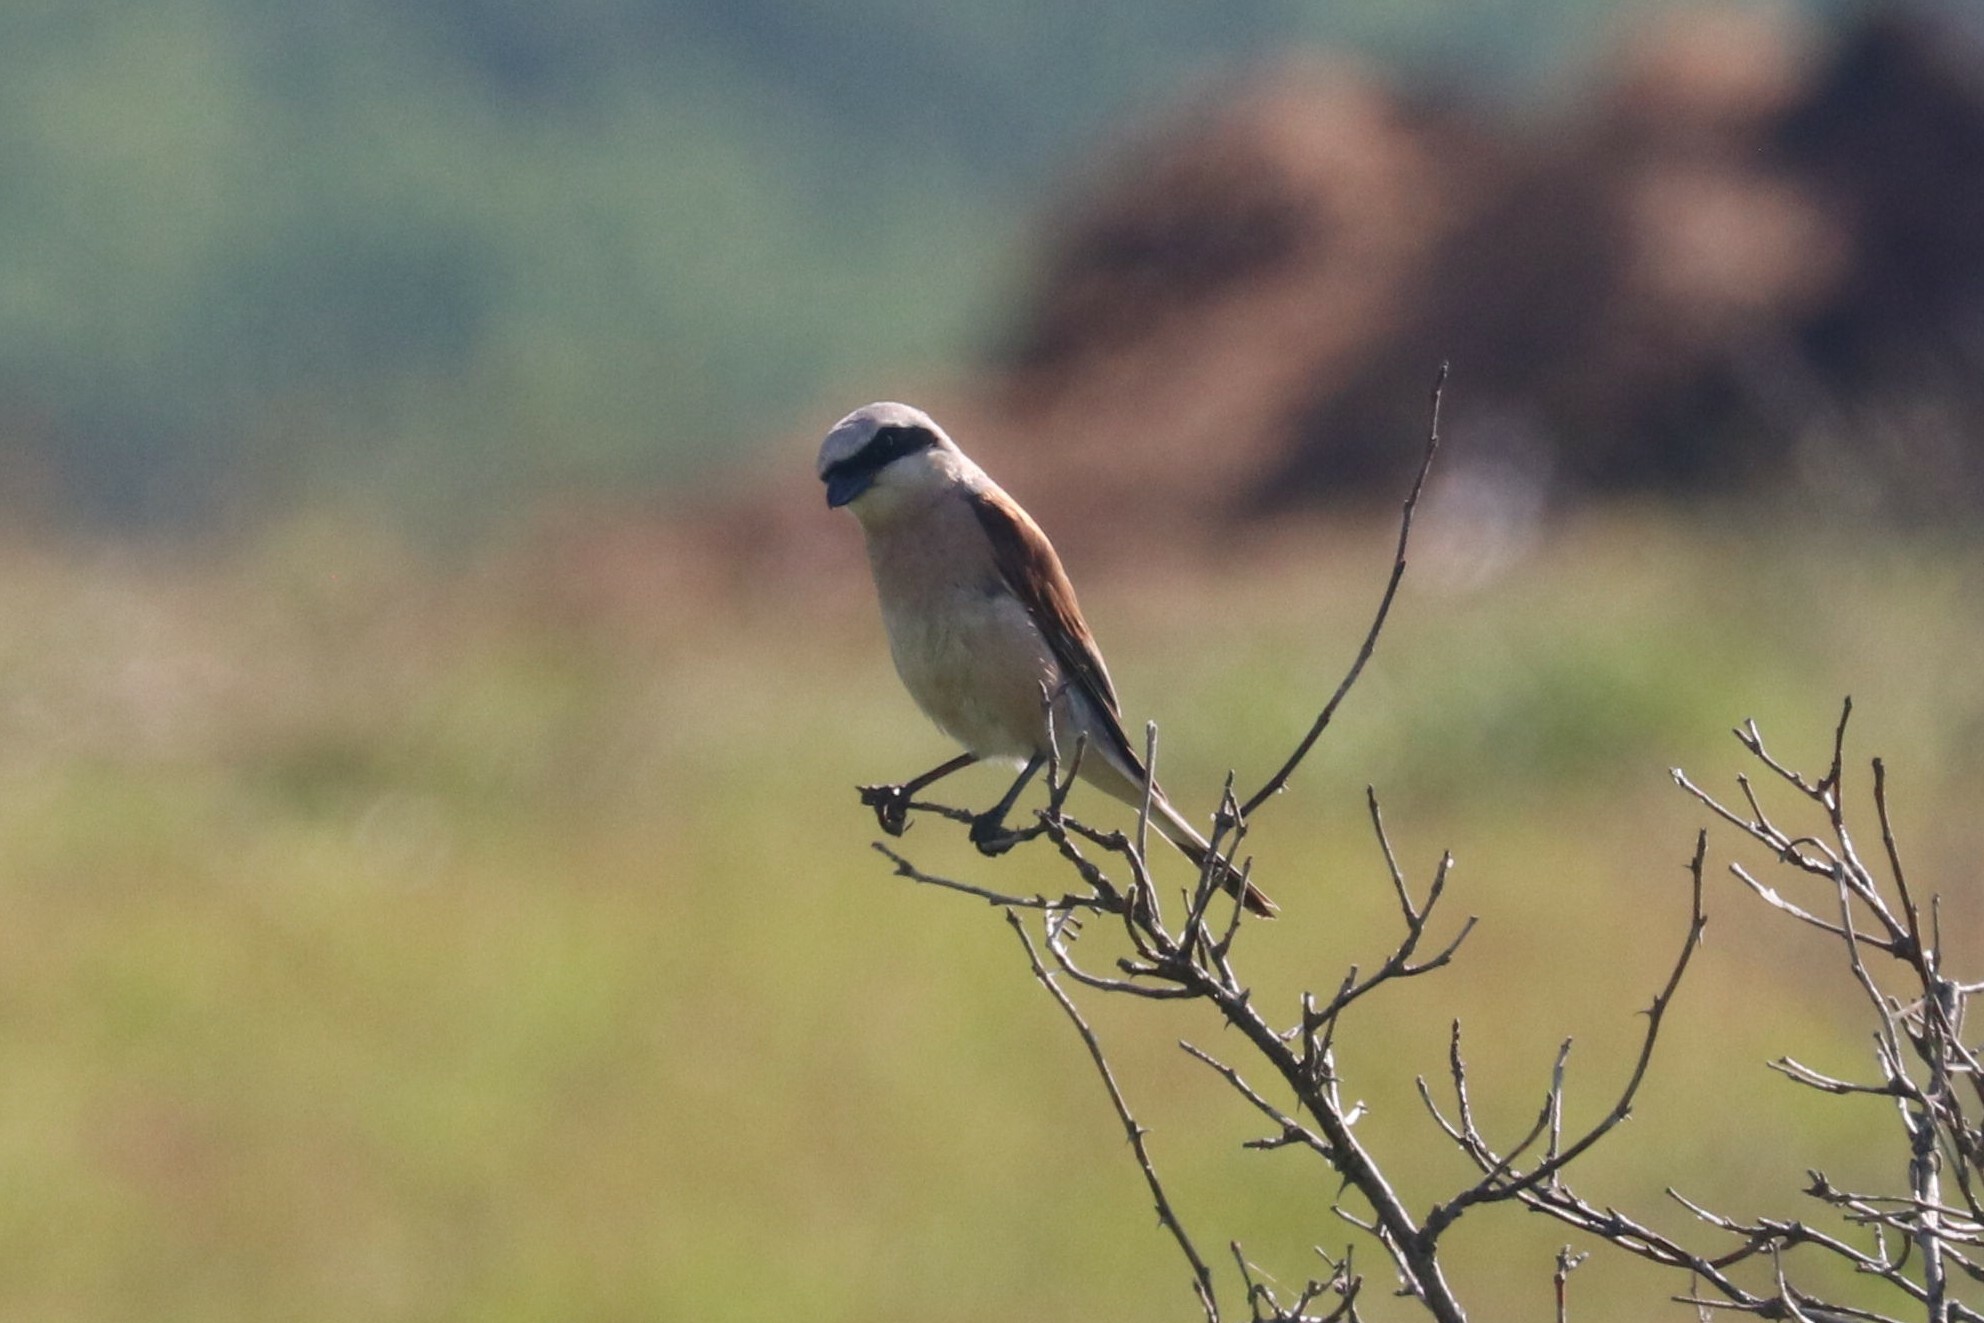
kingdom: Animalia
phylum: Chordata
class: Aves
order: Passeriformes
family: Laniidae
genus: Lanius
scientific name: Lanius collurio
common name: Red-backed shrike
